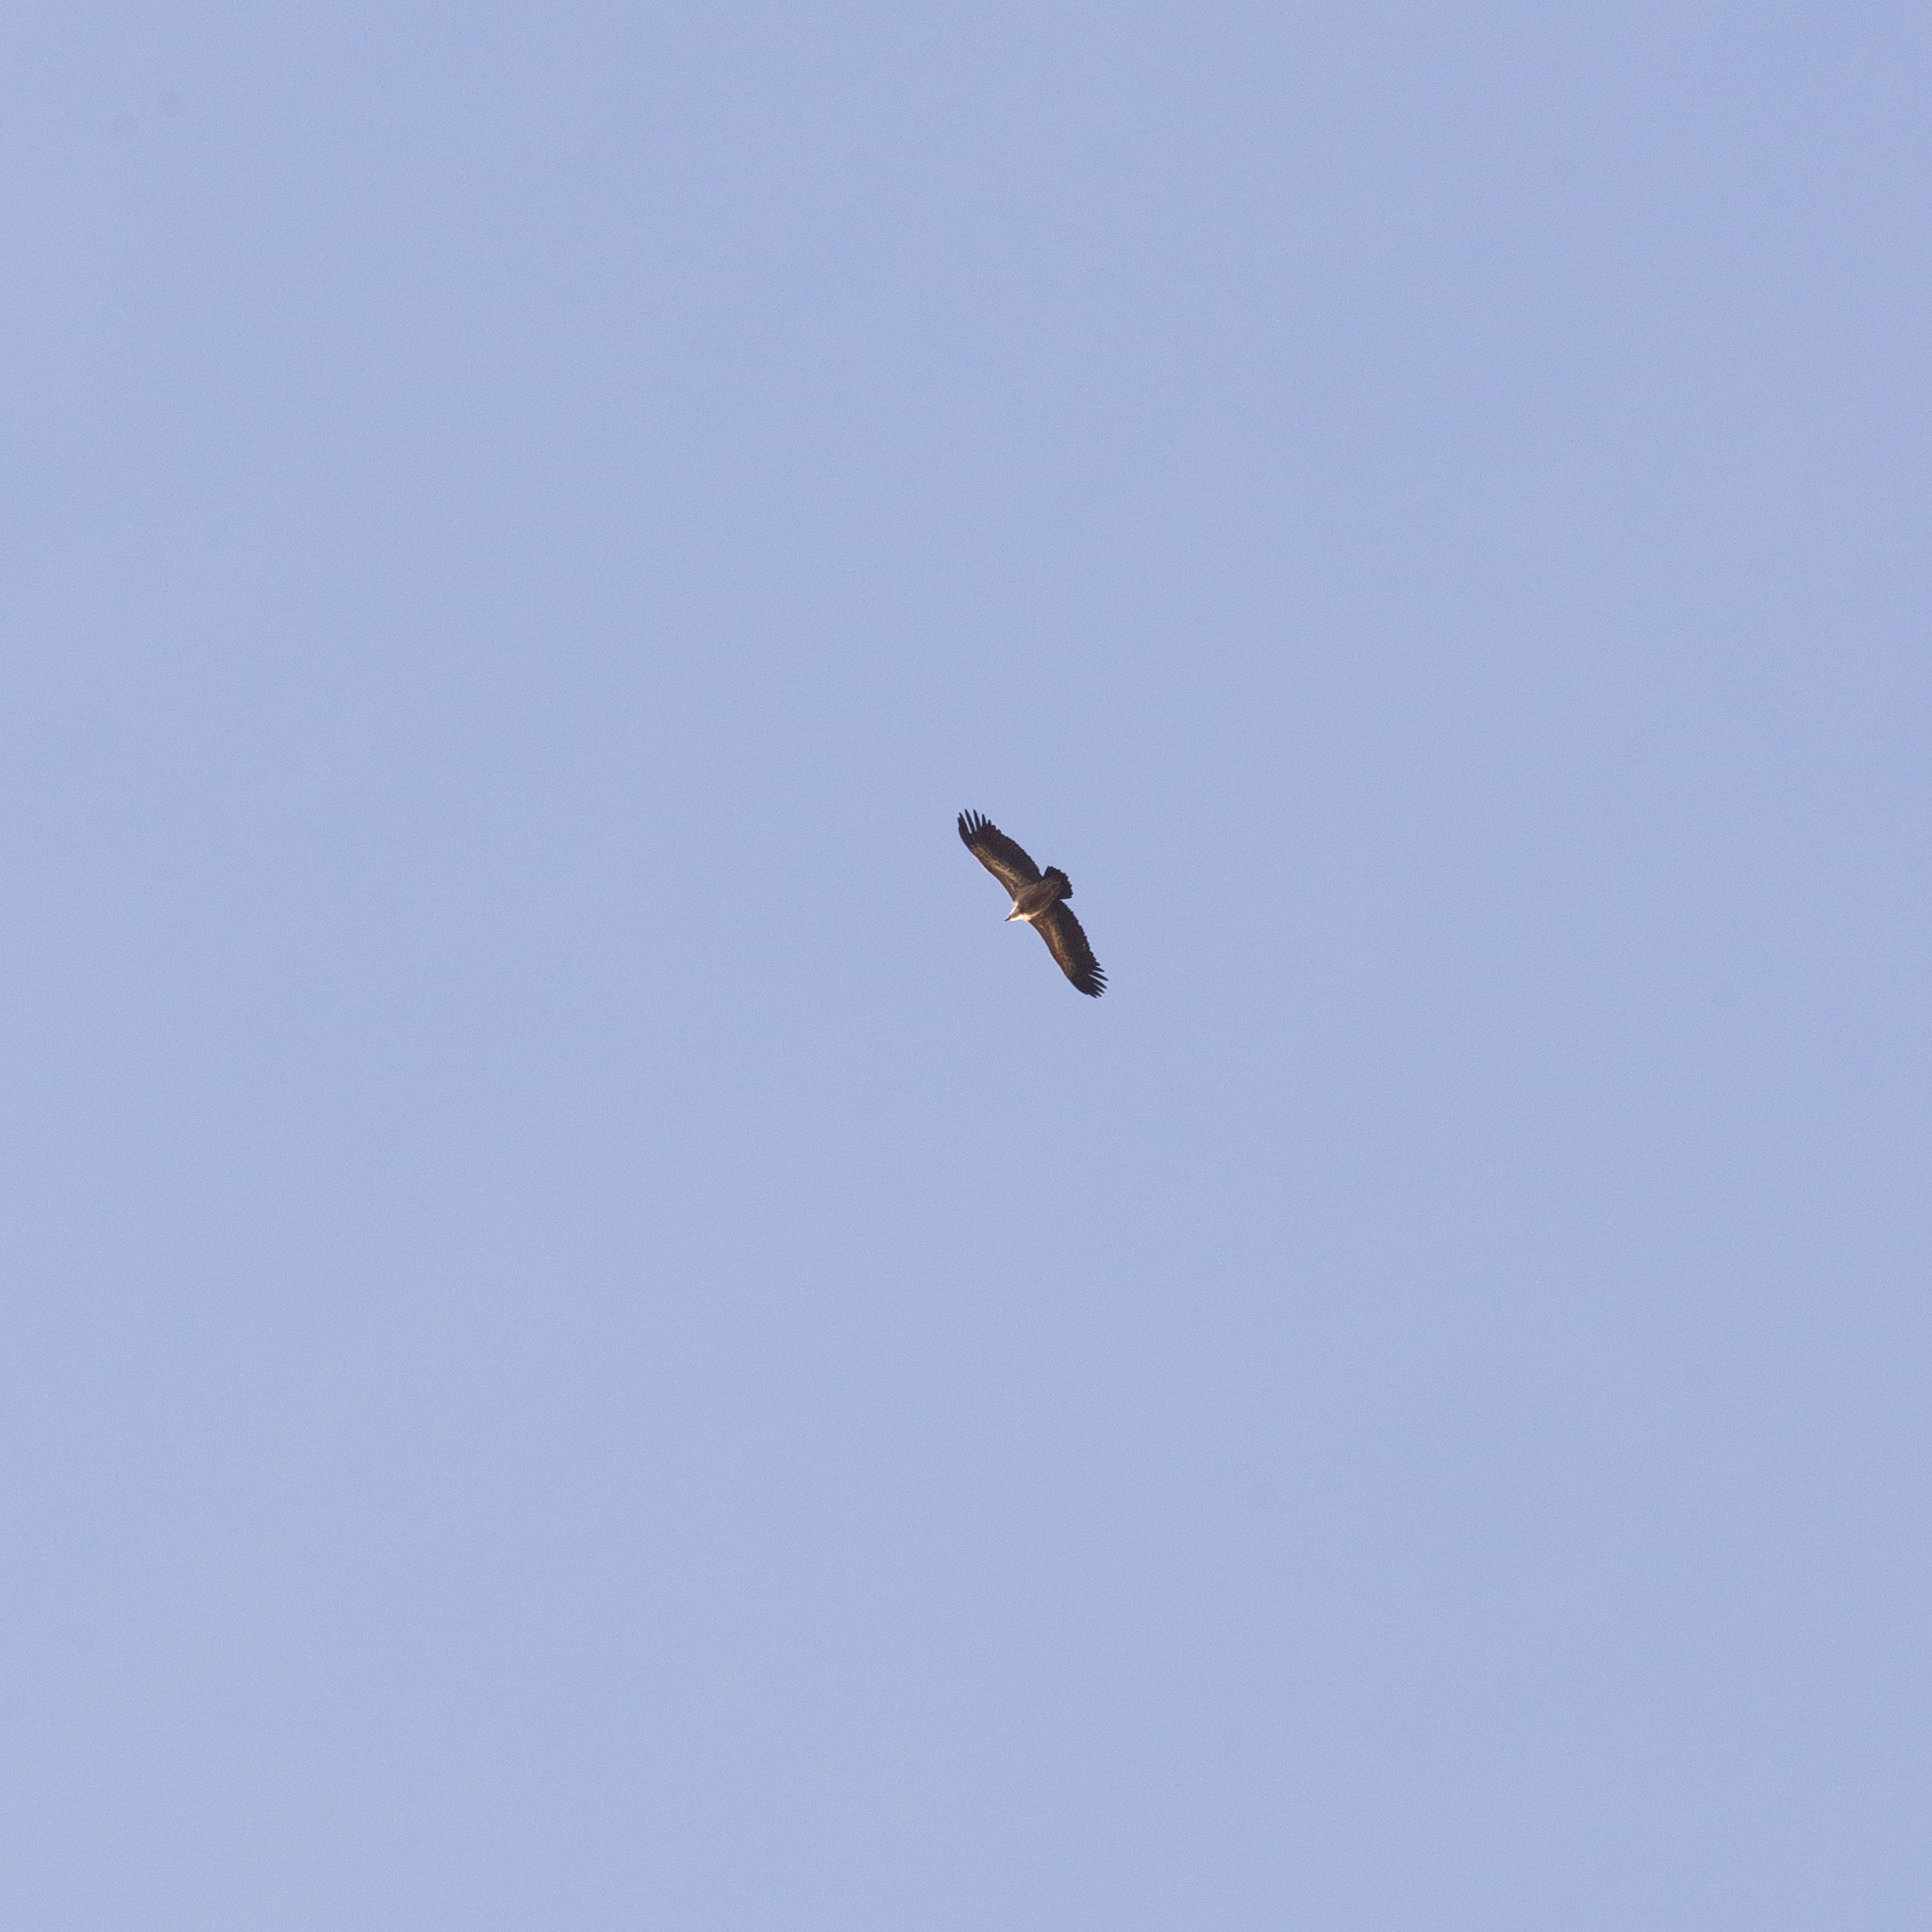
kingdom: Animalia
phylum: Chordata
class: Aves
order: Accipitriformes
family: Accipitridae
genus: Gyps
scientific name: Gyps fulvus
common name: Griffon vulture
